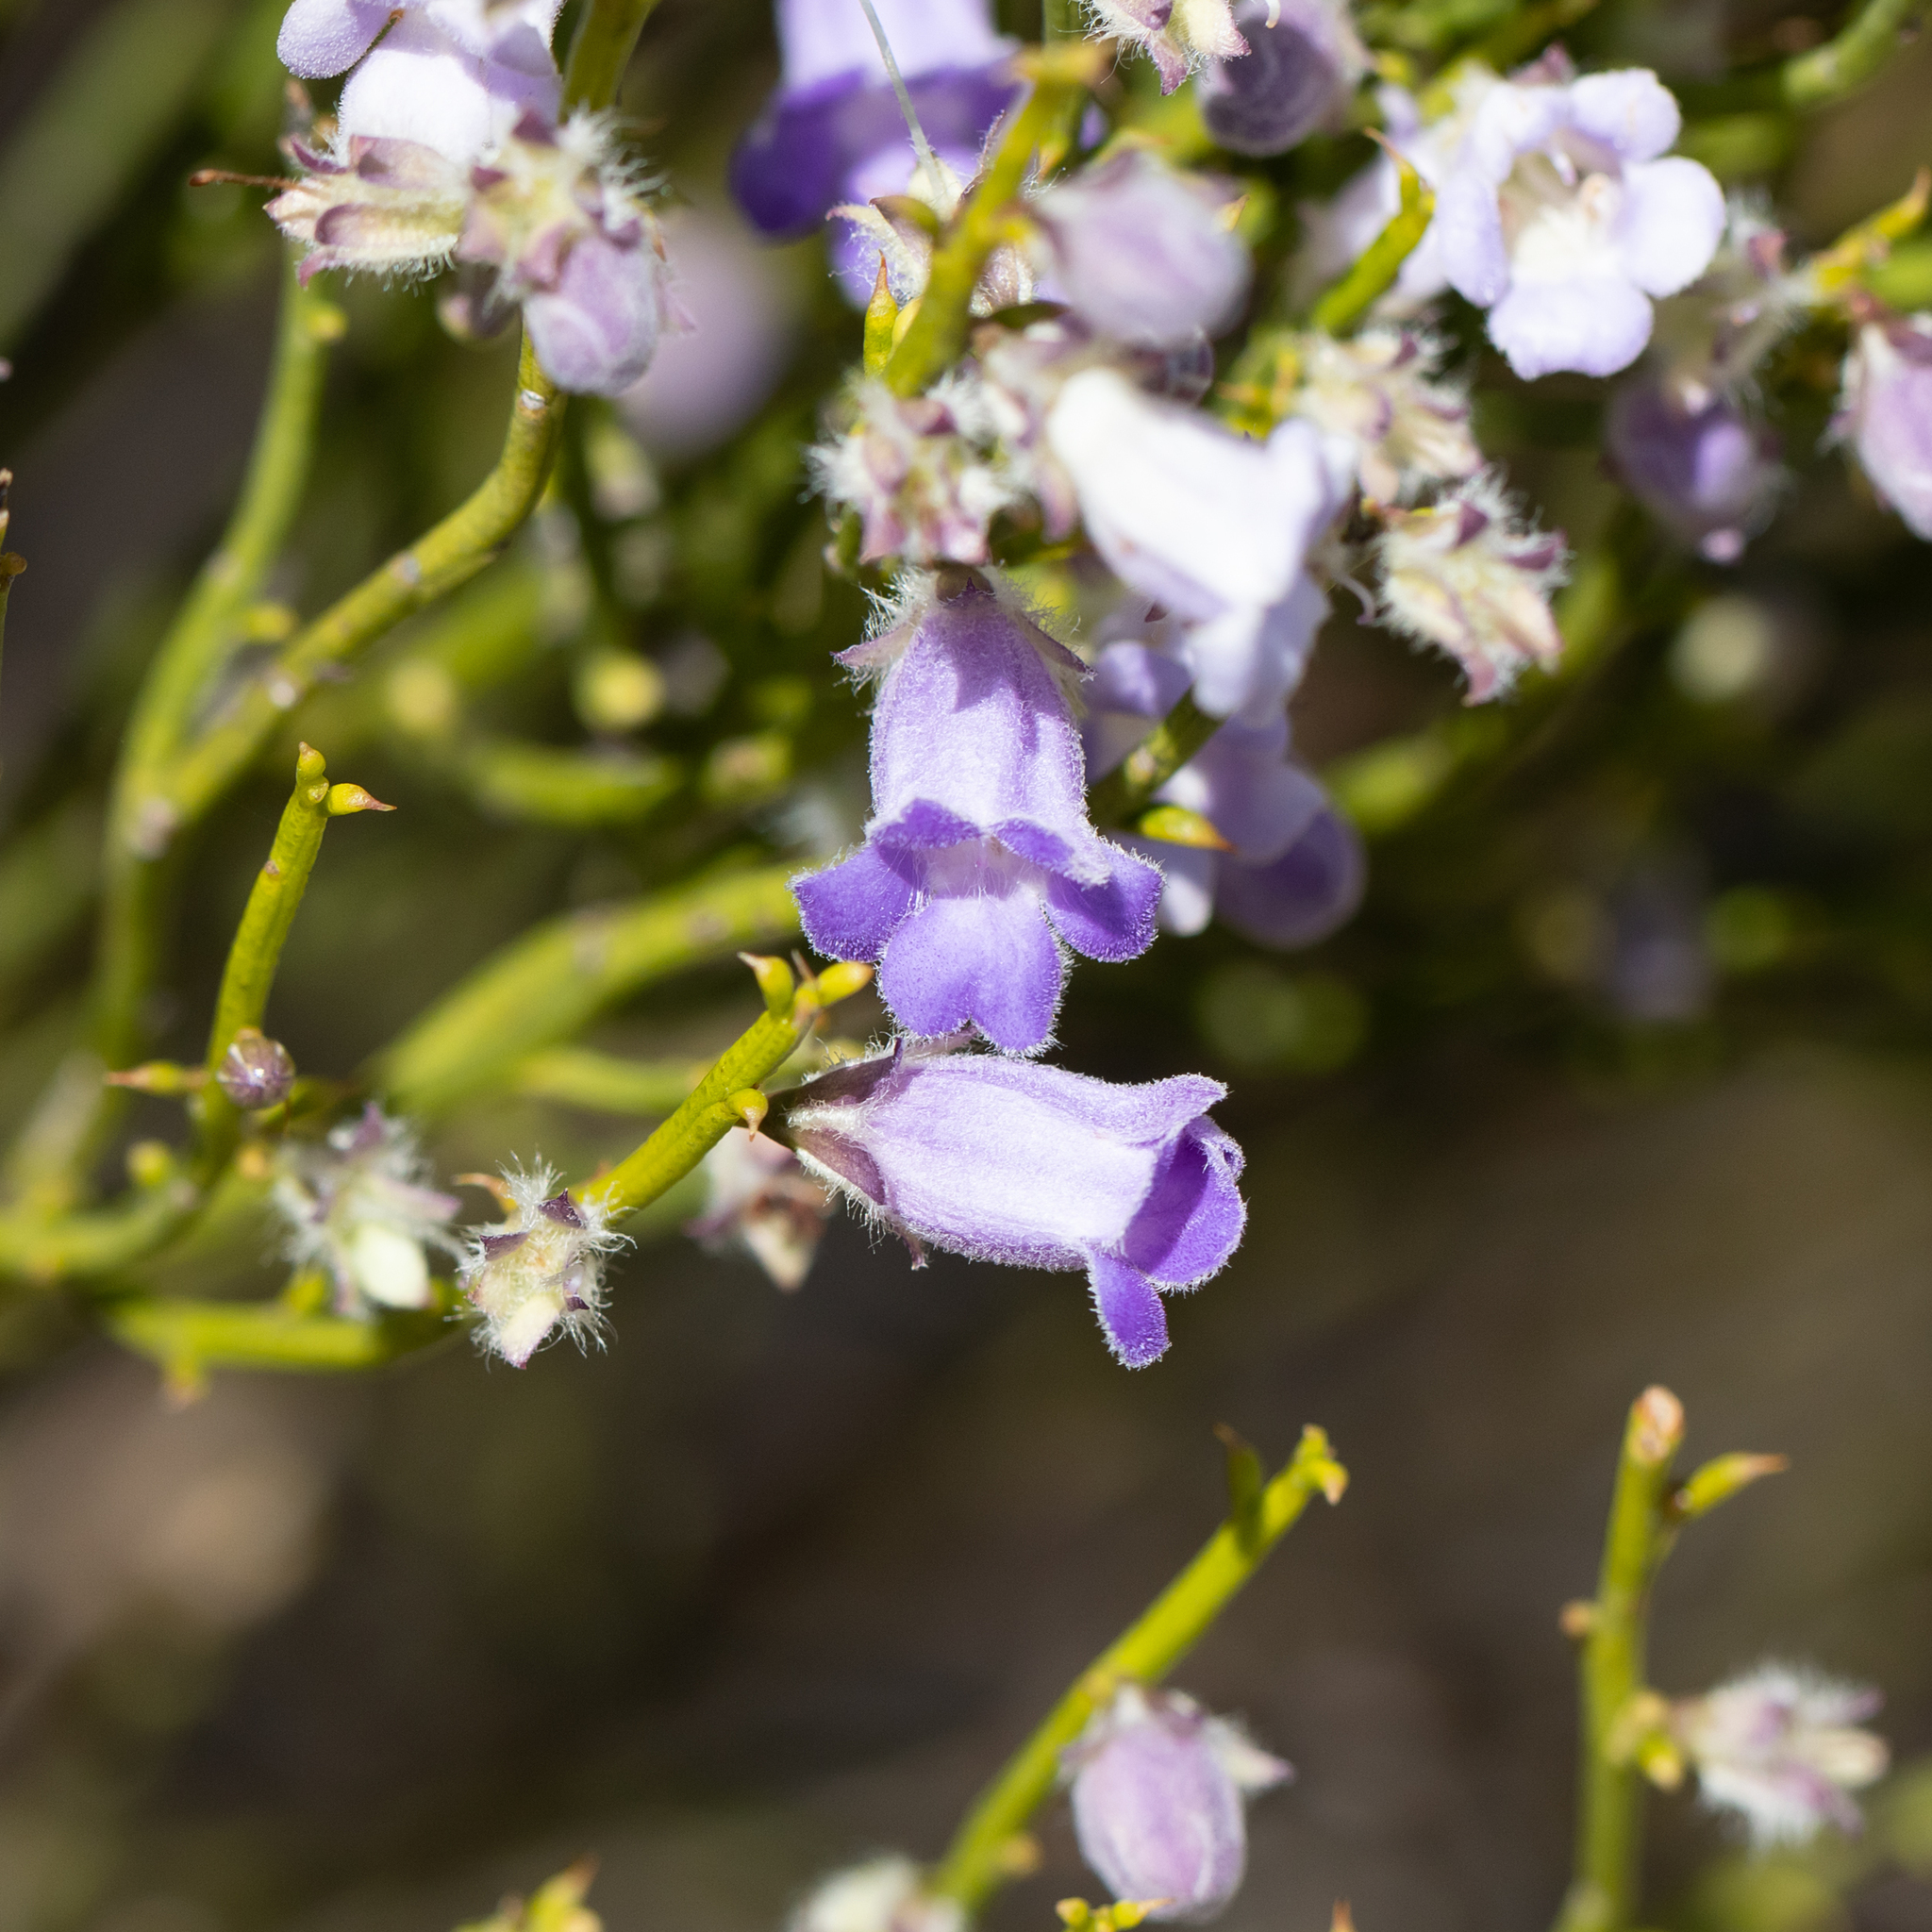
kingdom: Plantae
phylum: Tracheophyta
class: Magnoliopsida
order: Lamiales
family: Scrophulariaceae
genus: Eremophila
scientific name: Eremophila dempsteri
